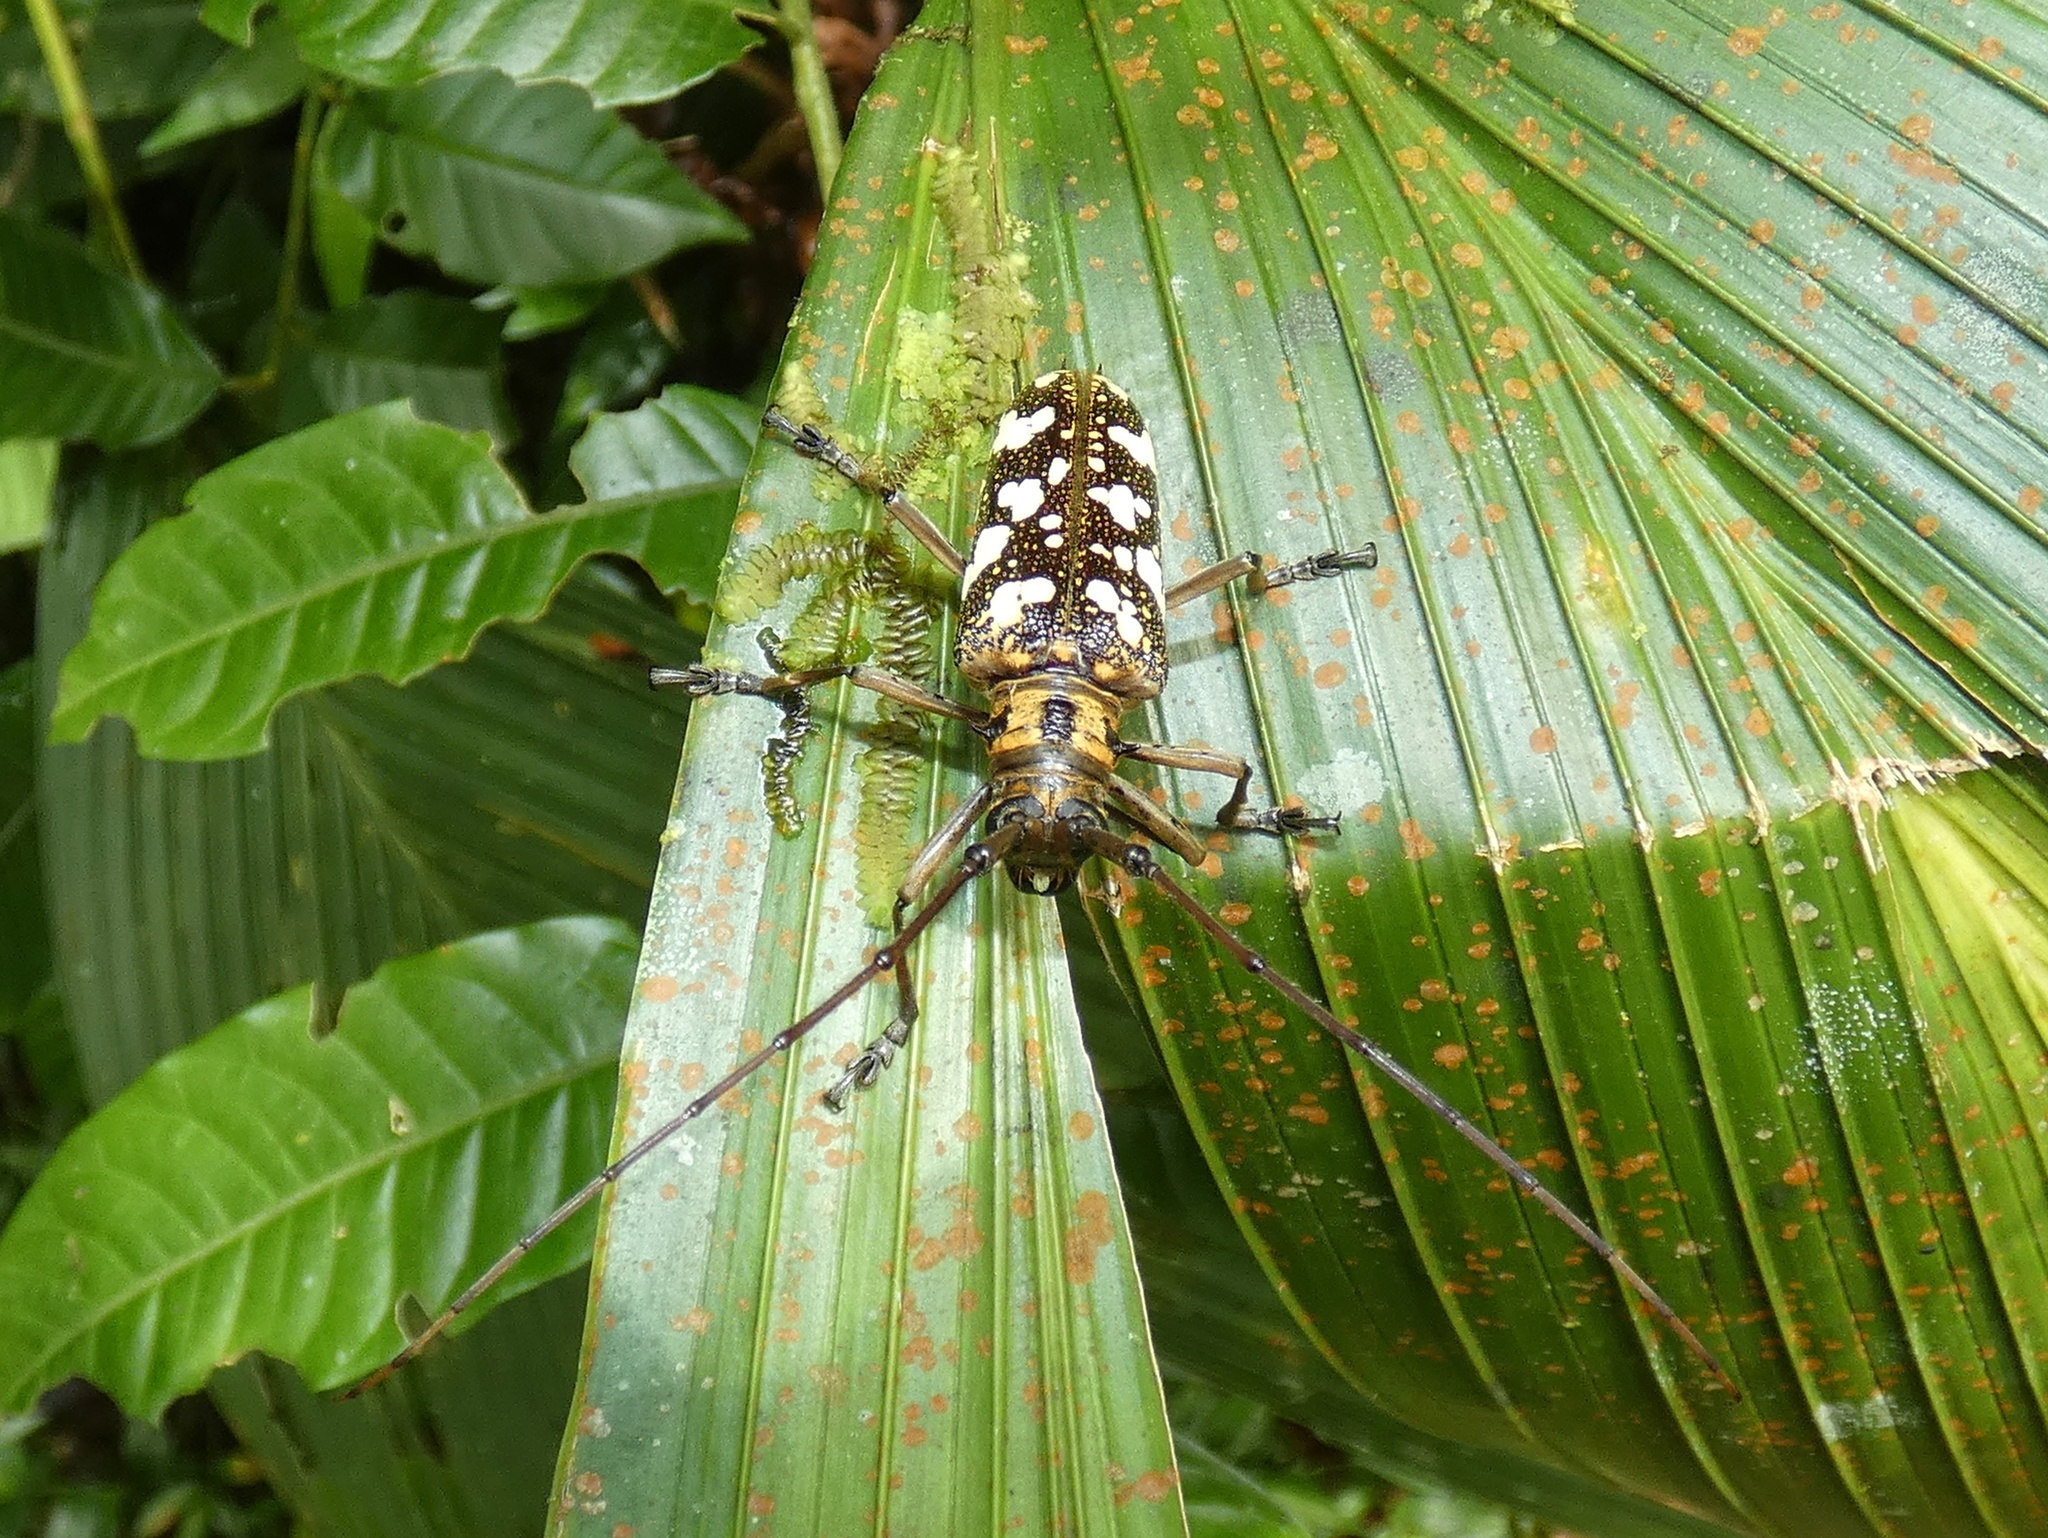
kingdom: Animalia
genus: Hammatoderus
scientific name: Hammatoderus
